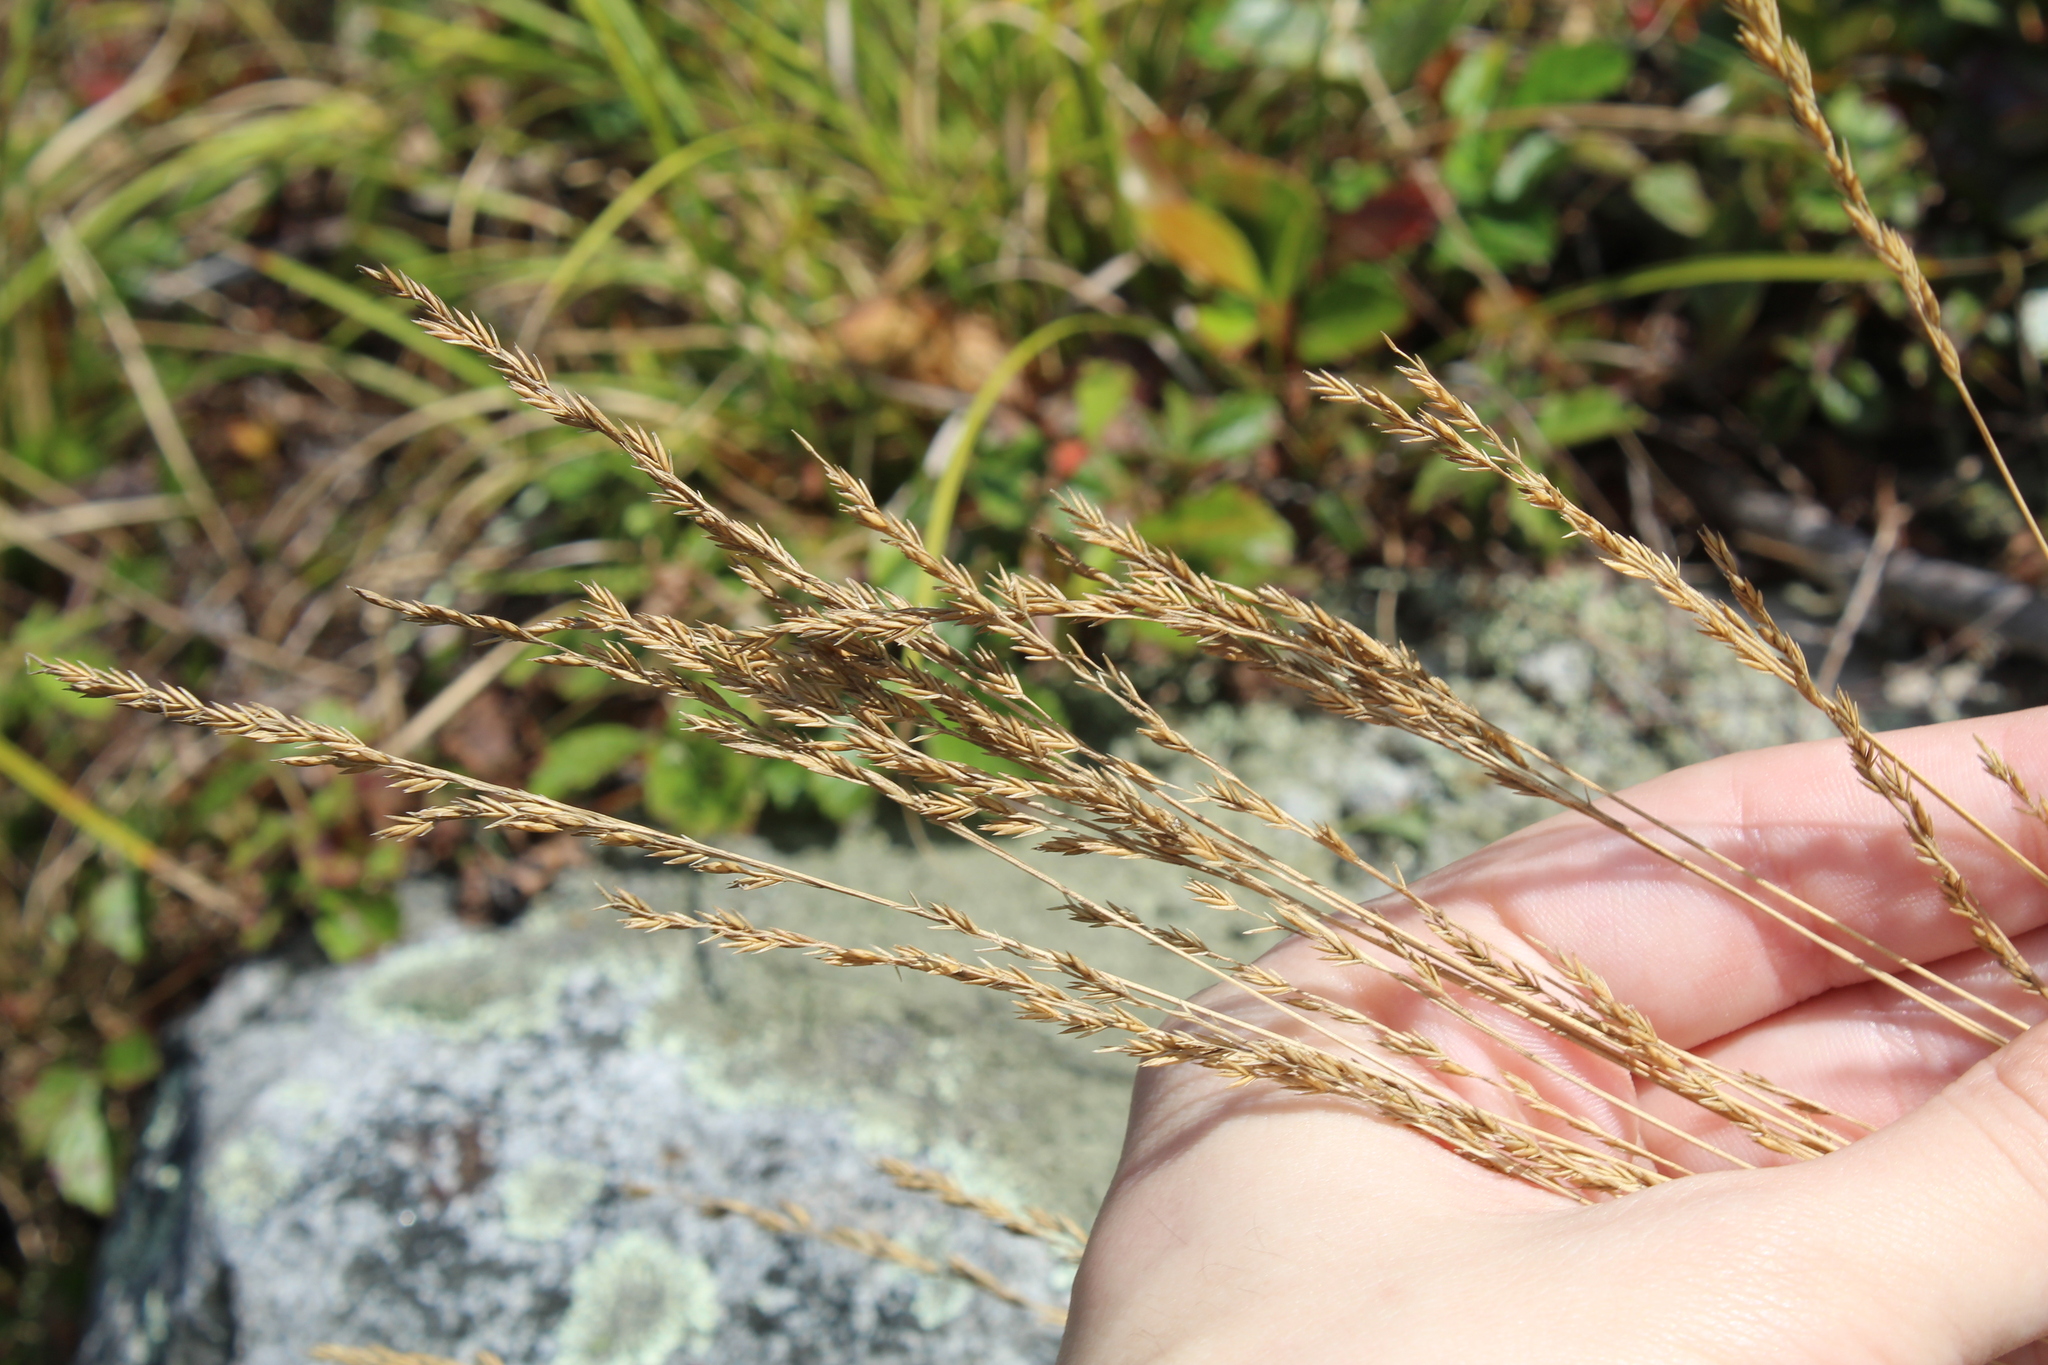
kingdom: Plantae
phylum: Tracheophyta
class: Liliopsida
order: Poales
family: Poaceae
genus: Festuca
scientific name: Festuca filiformis
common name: Fine-leaved sheep's-fescue
